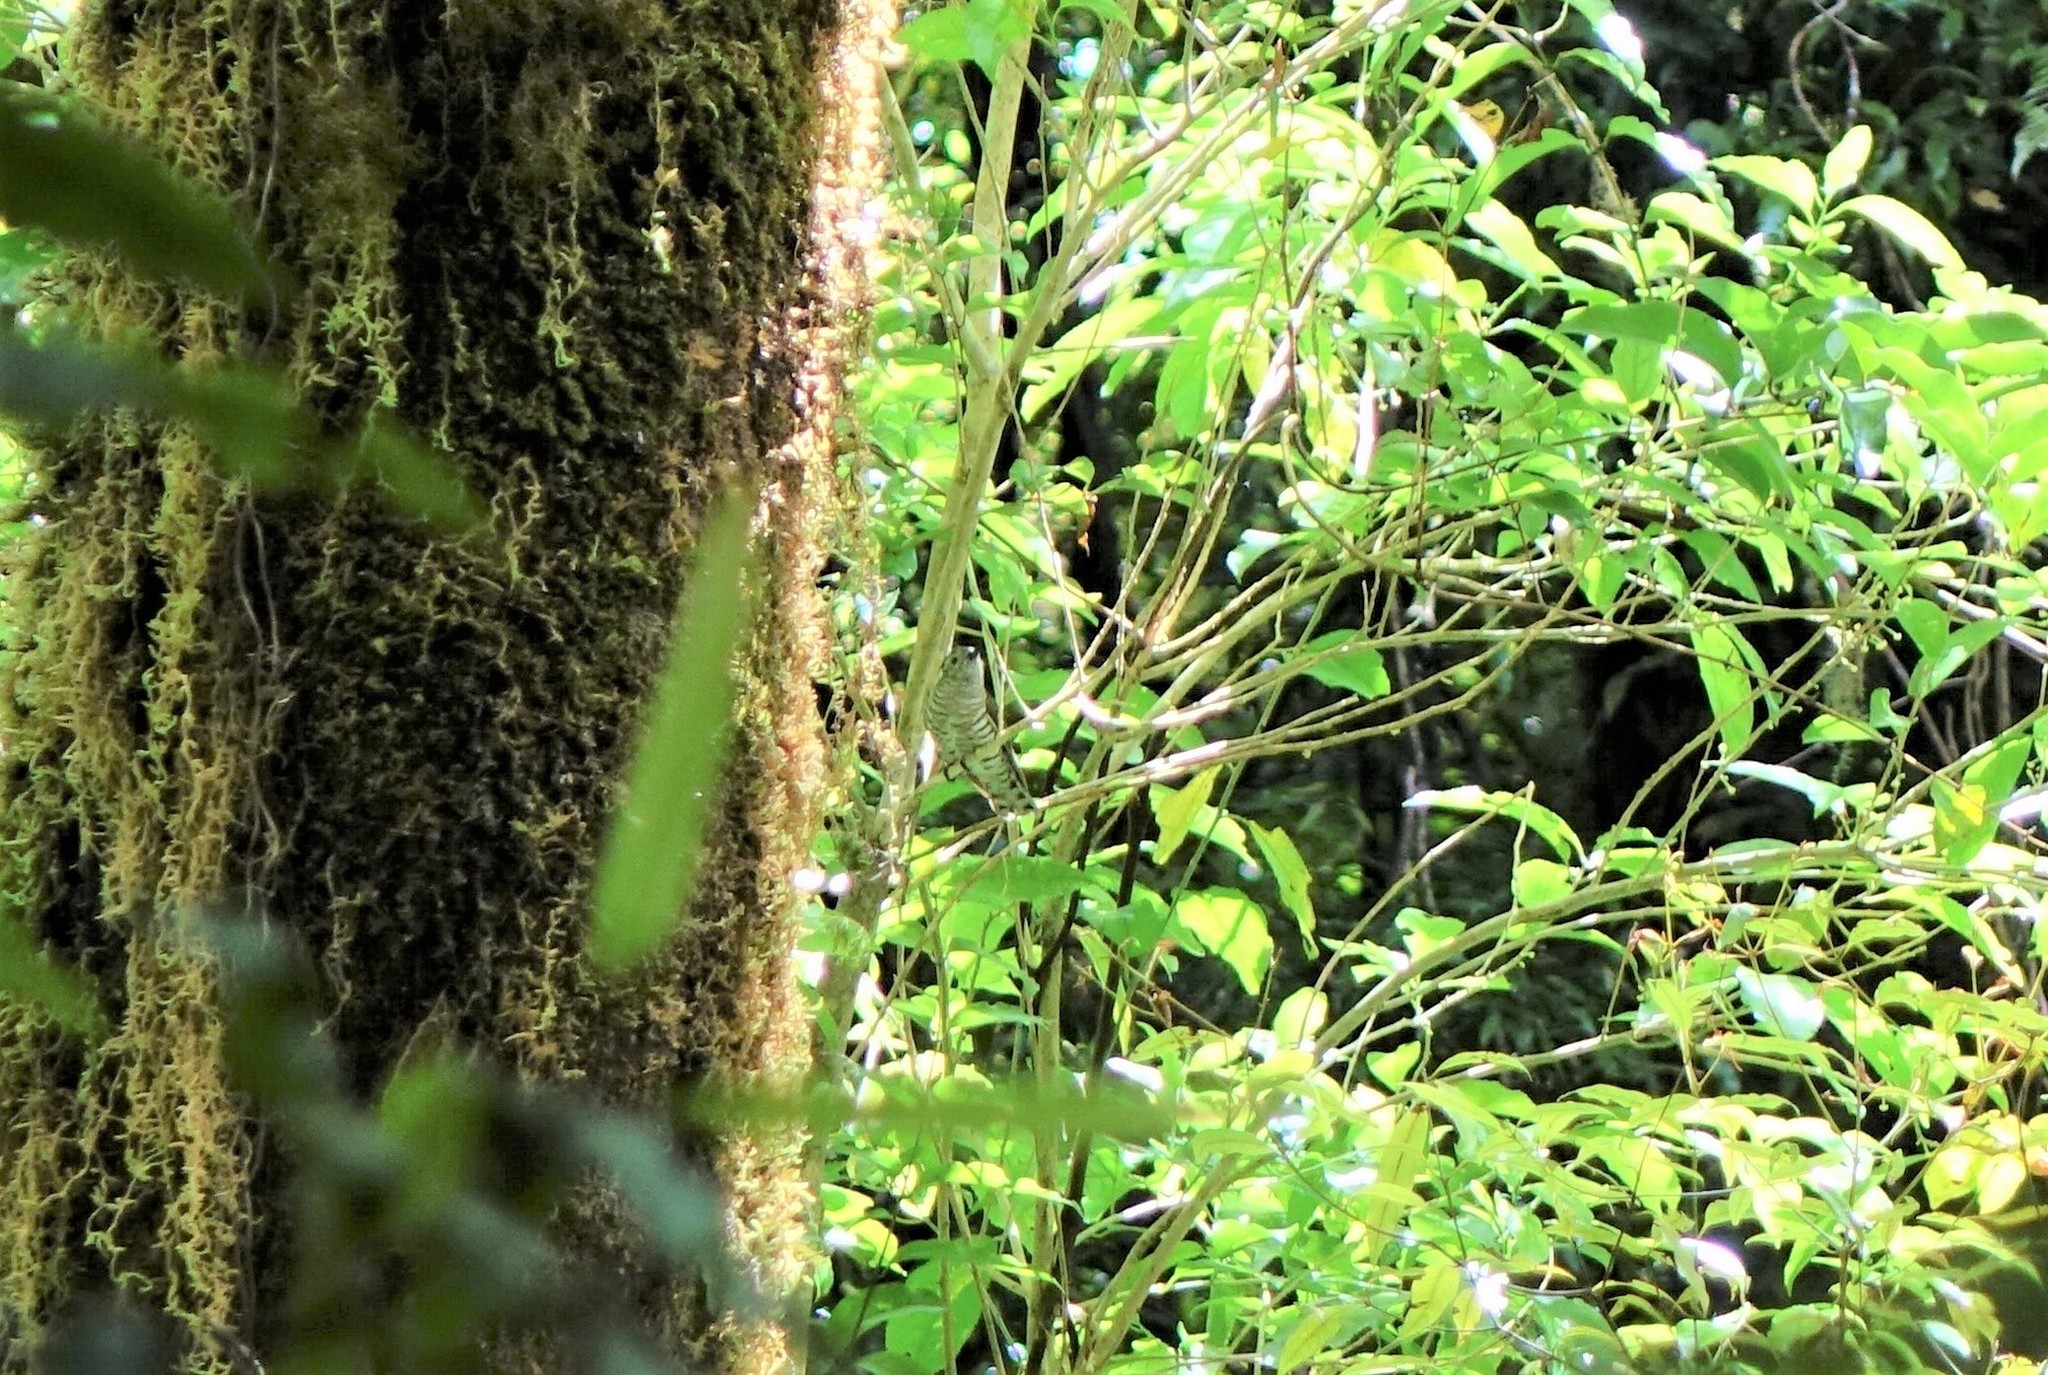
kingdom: Animalia
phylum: Chordata
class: Aves
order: Cuculiformes
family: Cuculidae
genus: Chrysococcyx
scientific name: Chrysococcyx lucidus
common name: Shining bronze cuckoo
